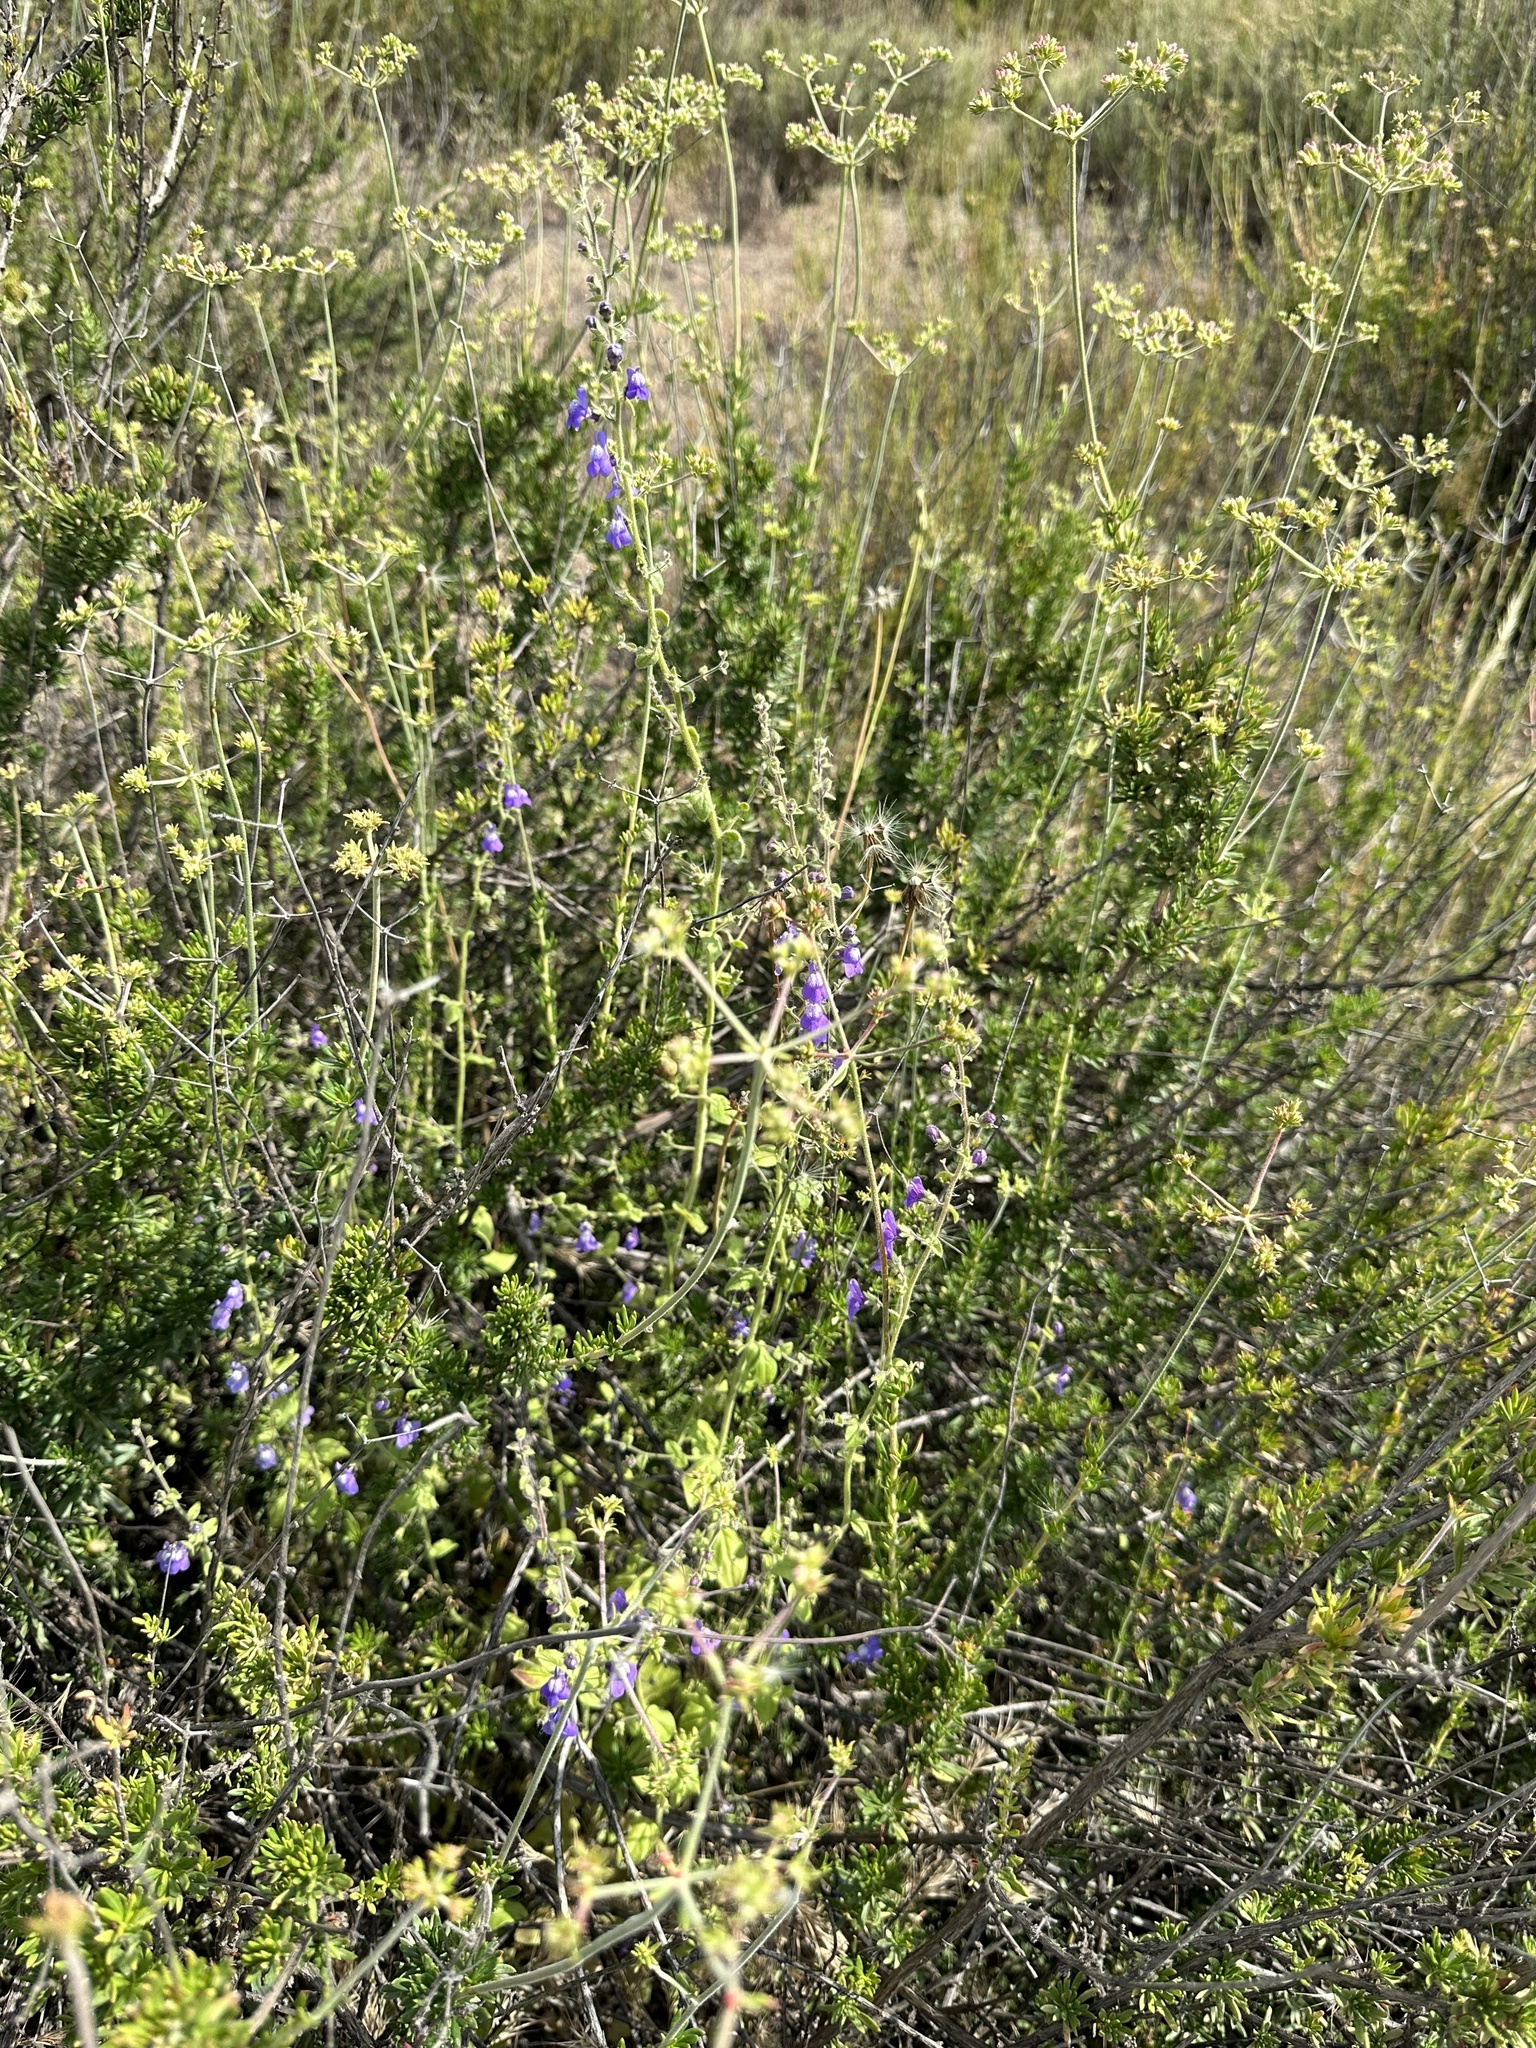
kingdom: Plantae
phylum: Tracheophyta
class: Magnoliopsida
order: Lamiales
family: Plantaginaceae
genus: Sairocarpus
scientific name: Sairocarpus nuttallianus
